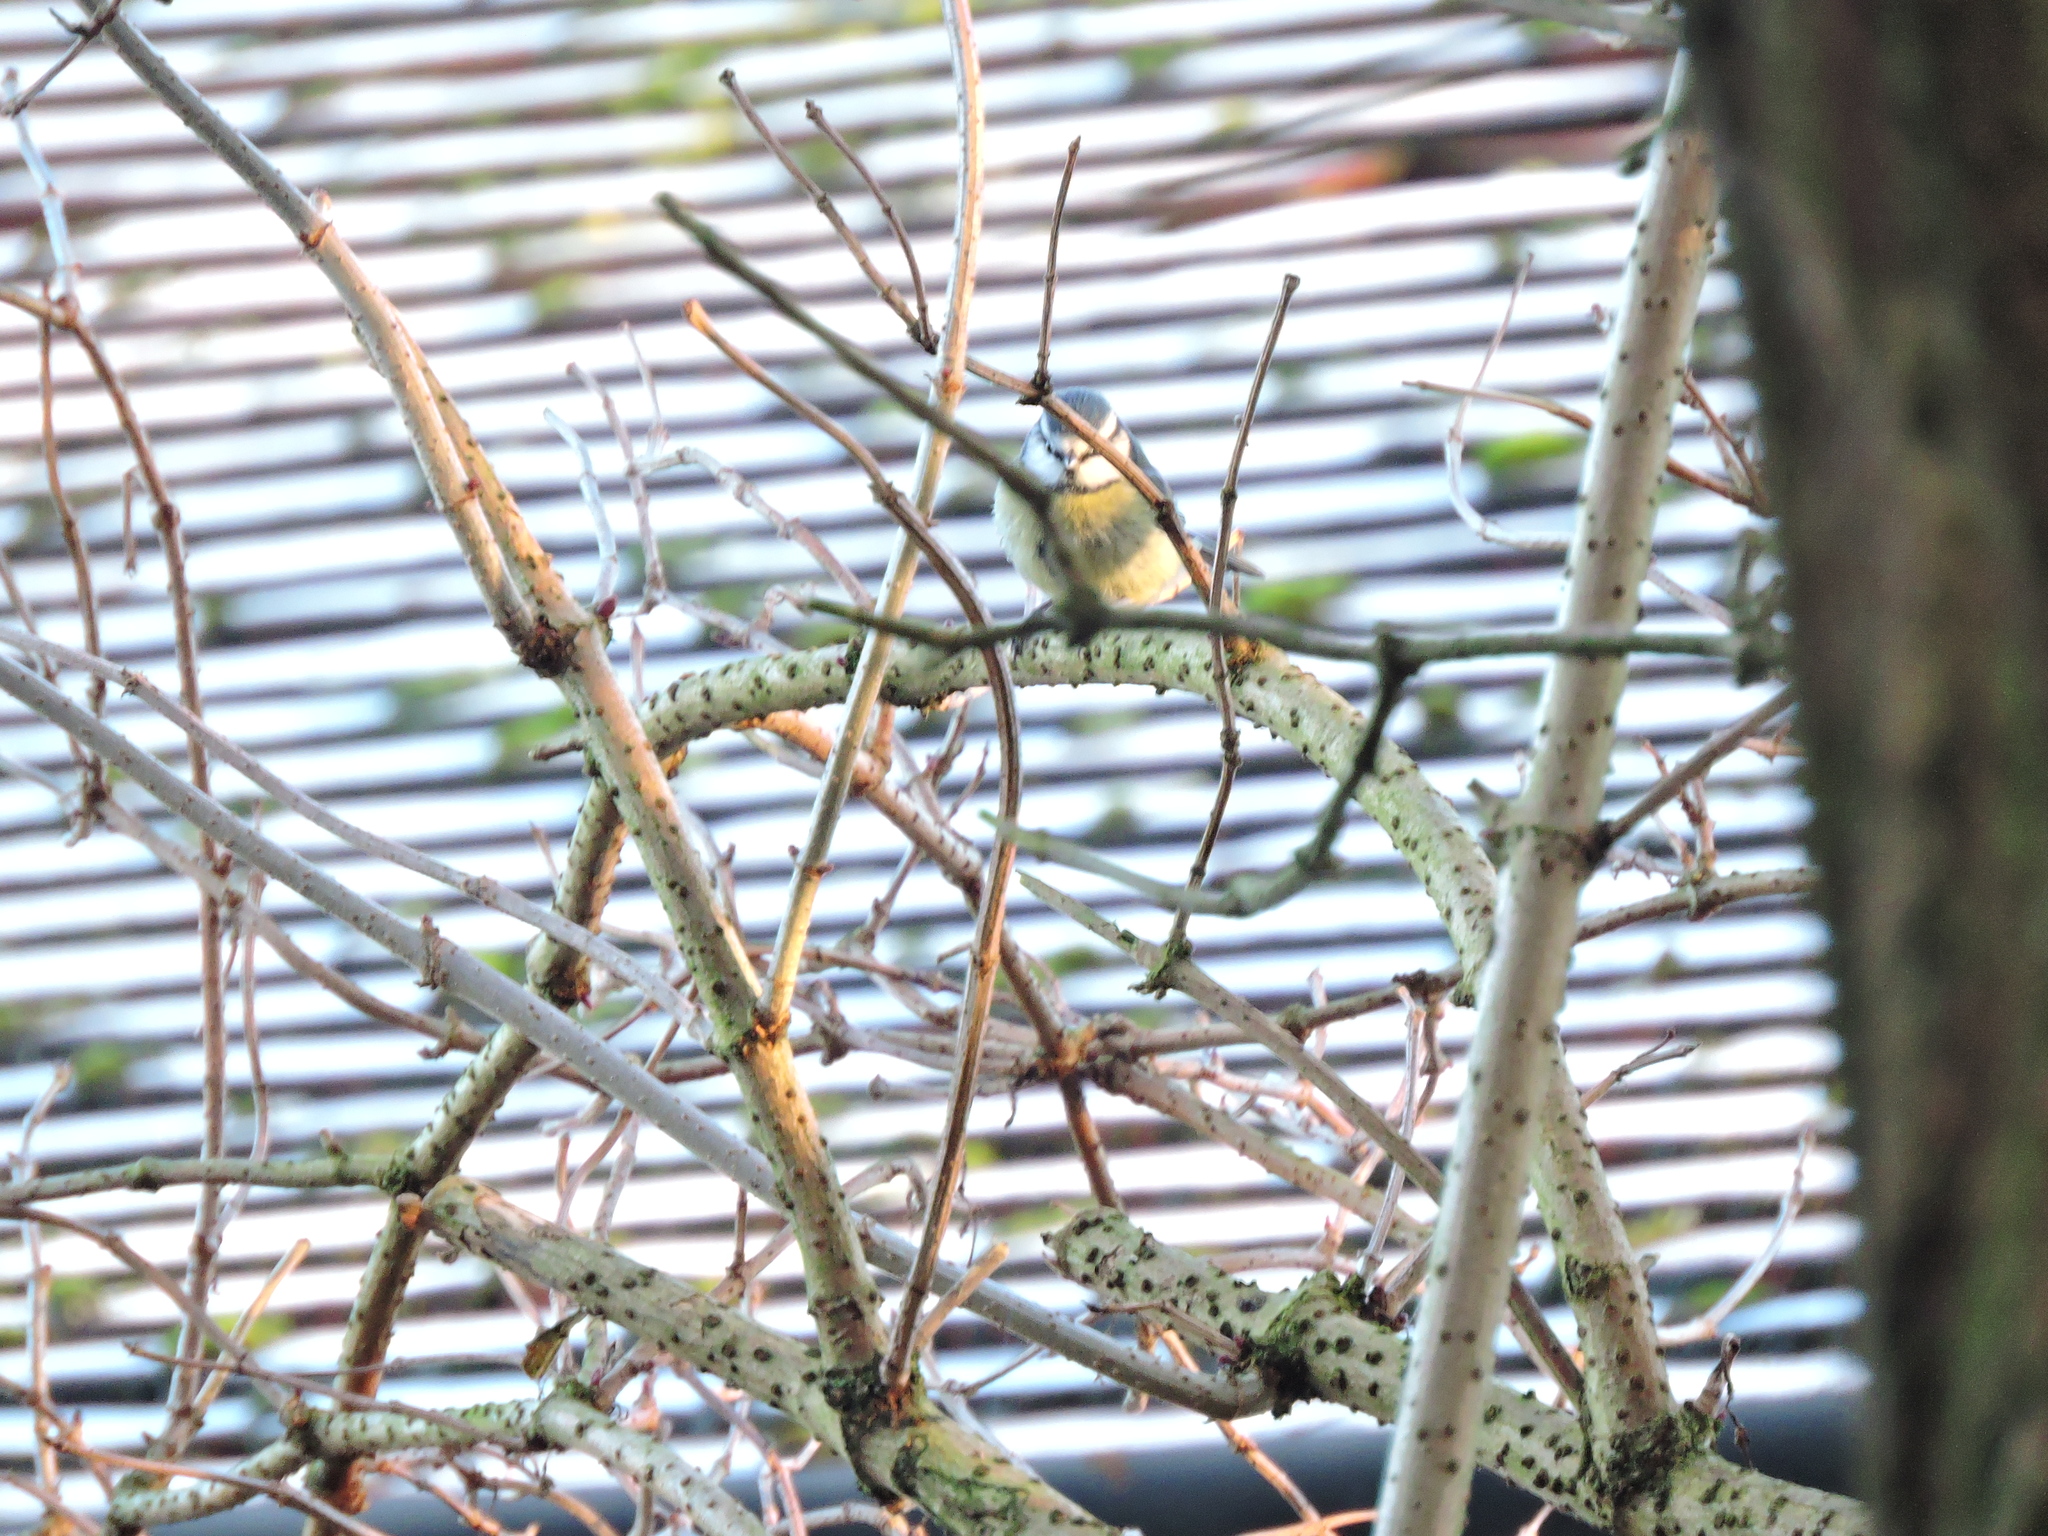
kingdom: Animalia
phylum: Chordata
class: Aves
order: Passeriformes
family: Paridae
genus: Cyanistes
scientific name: Cyanistes caeruleus
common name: Eurasian blue tit
